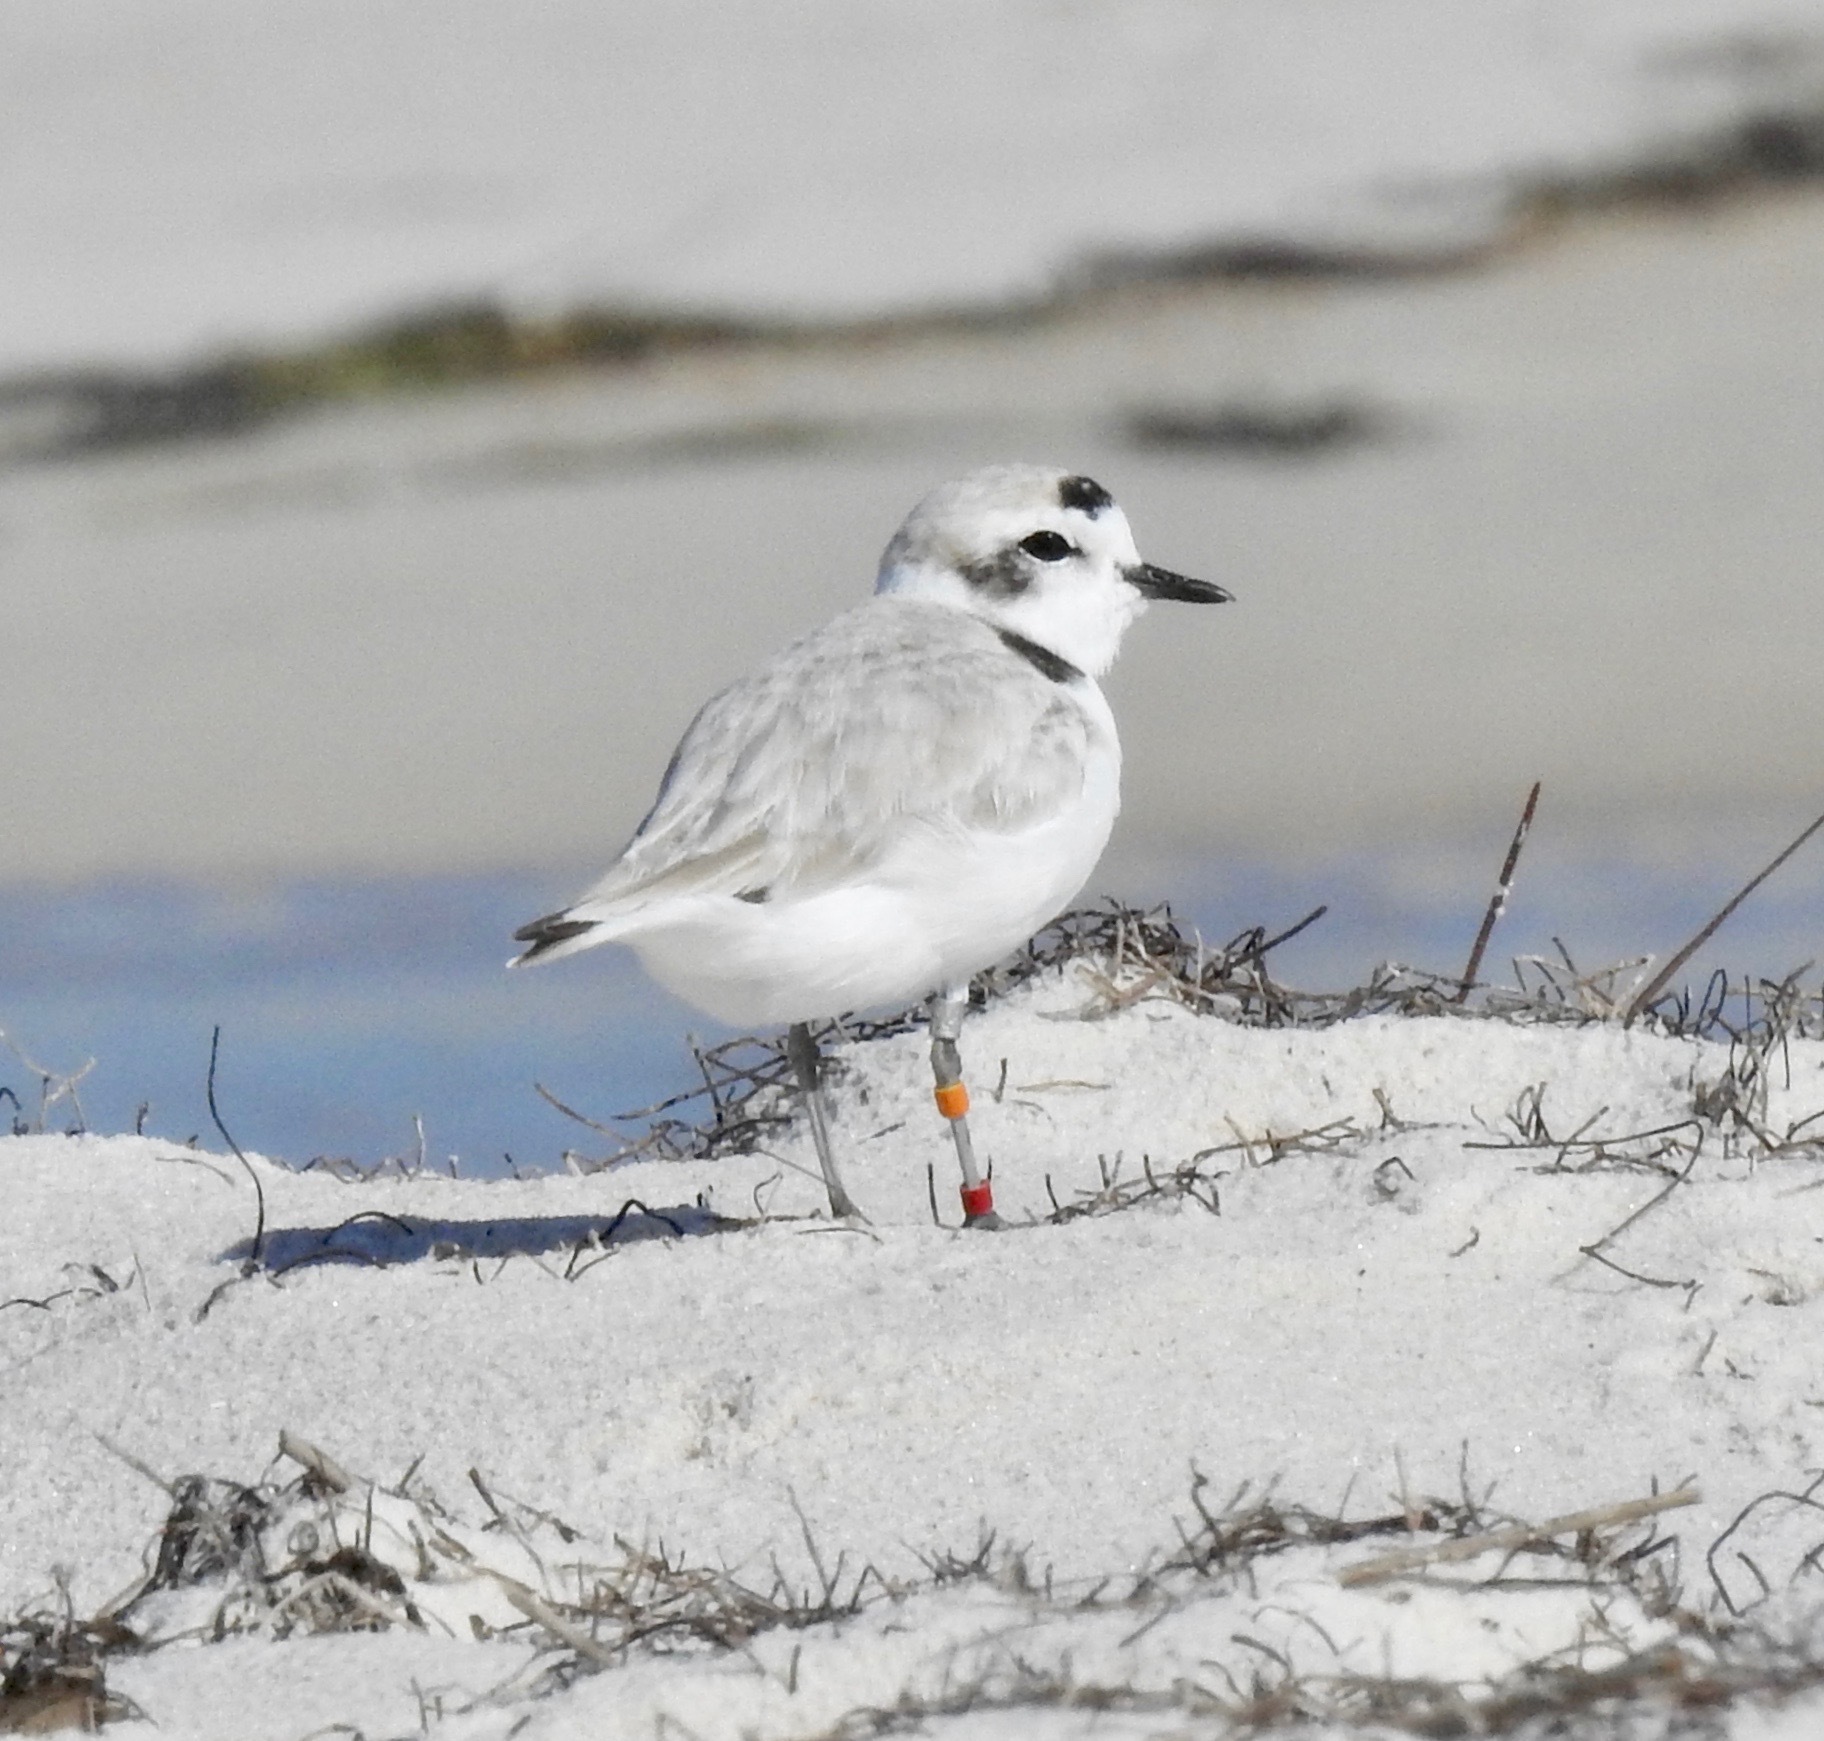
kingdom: Animalia
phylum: Chordata
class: Aves
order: Charadriiformes
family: Charadriidae
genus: Anarhynchus
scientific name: Anarhynchus
